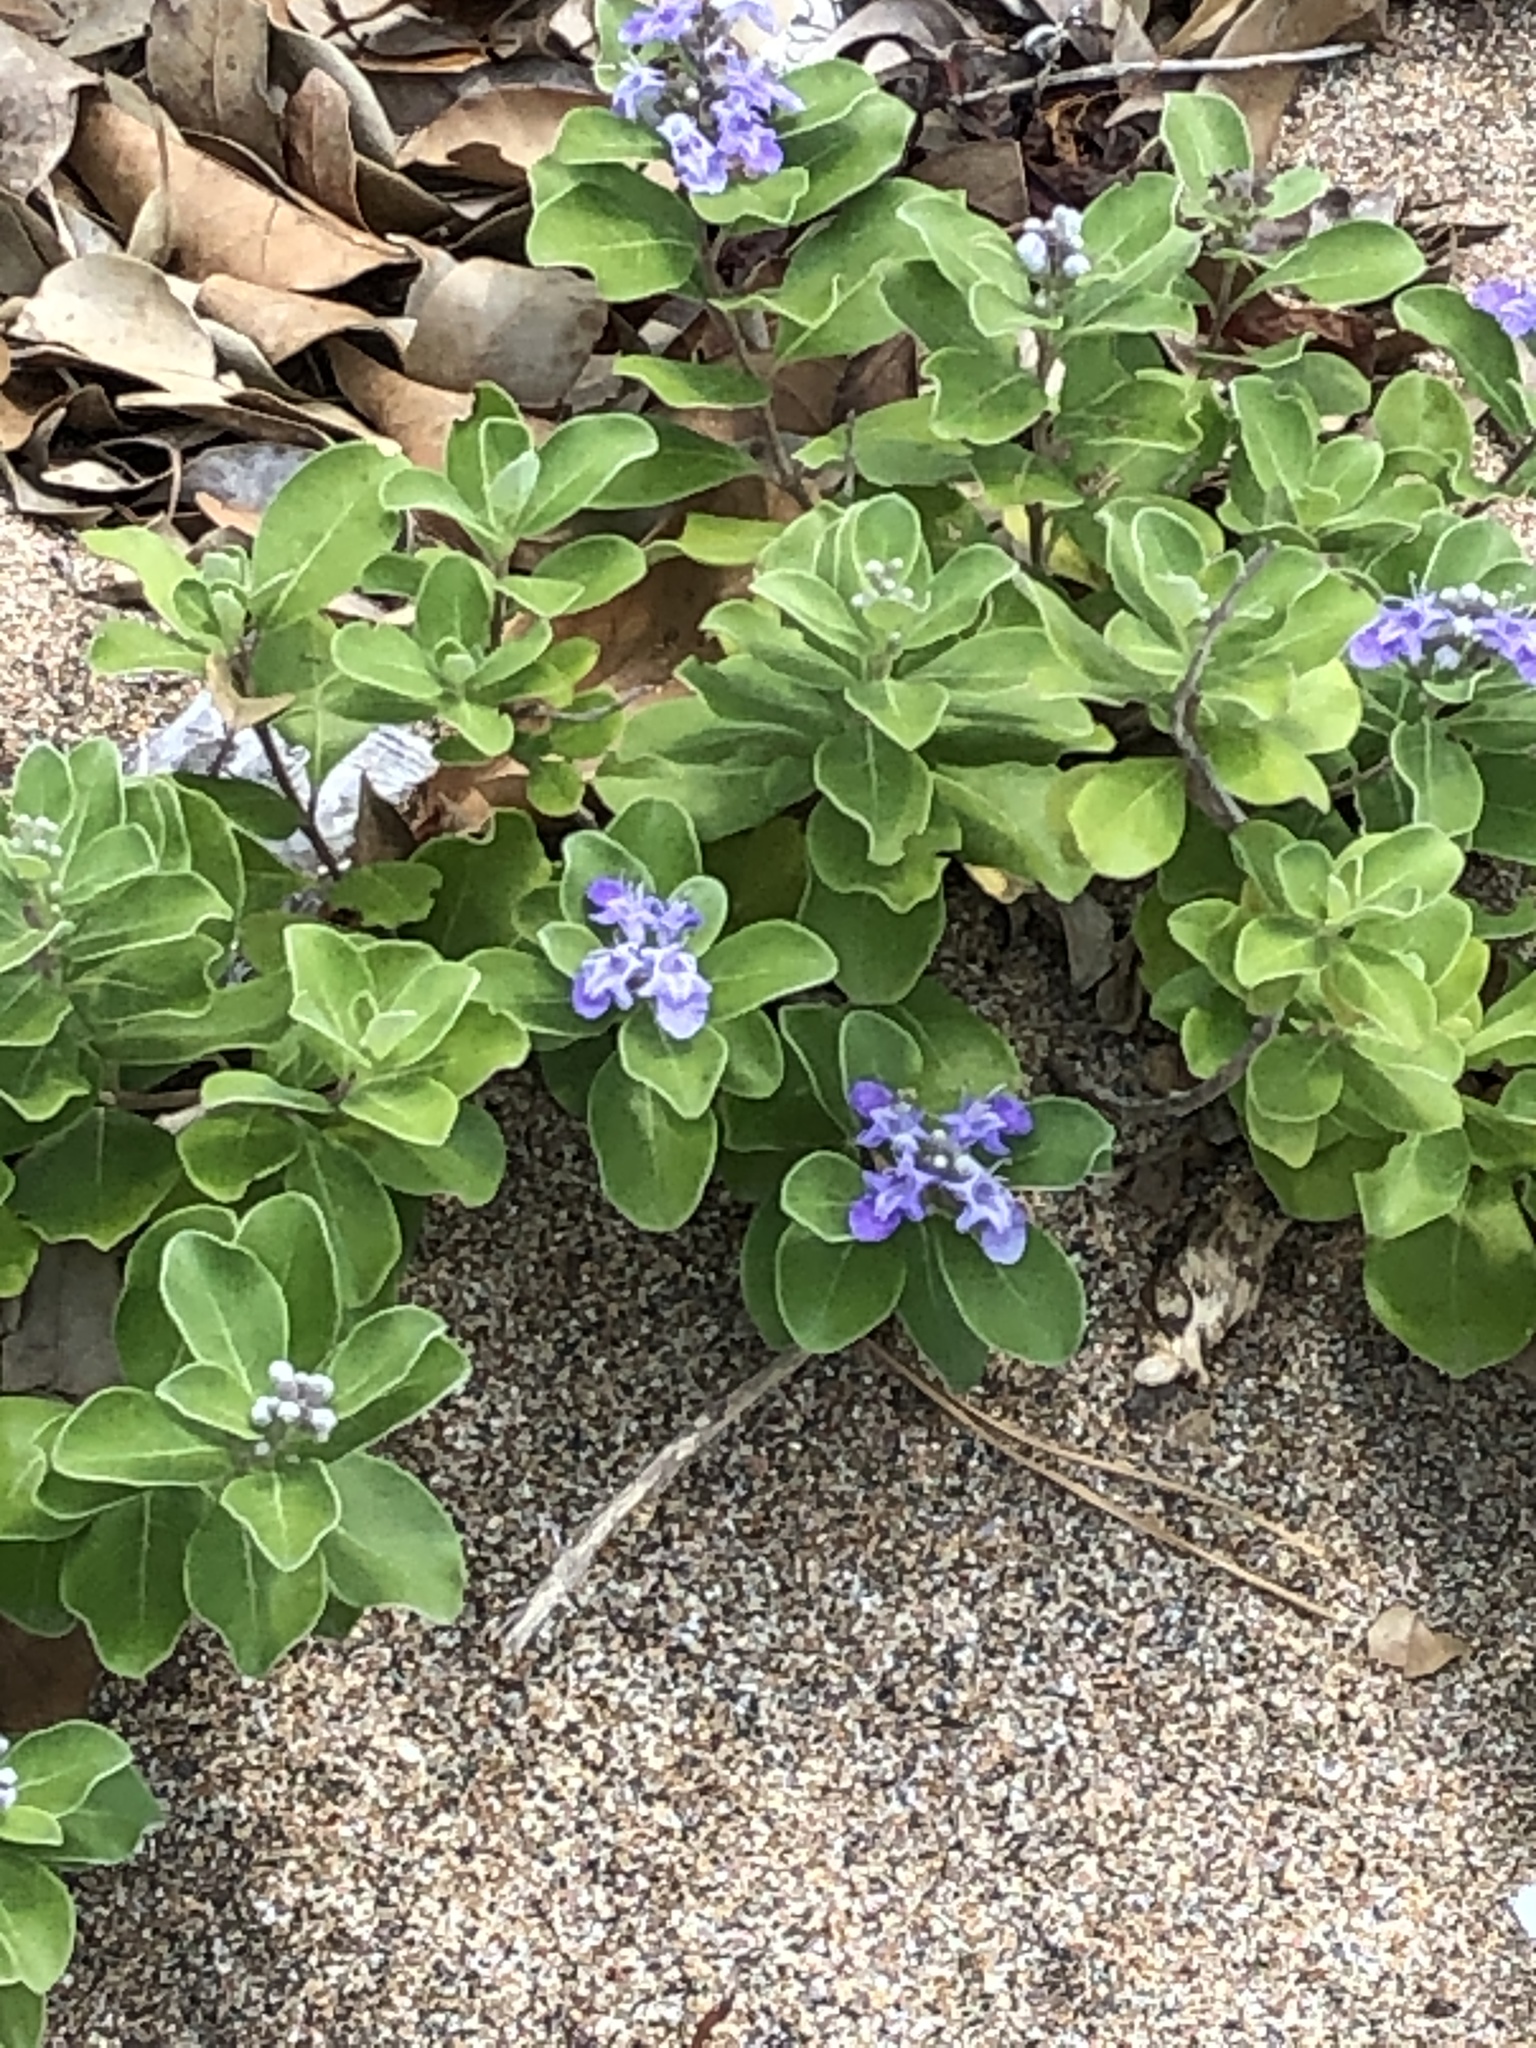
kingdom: Plantae
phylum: Tracheophyta
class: Magnoliopsida
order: Lamiales
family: Lamiaceae
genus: Vitex
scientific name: Vitex rotundifolia
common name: Beach vitex
